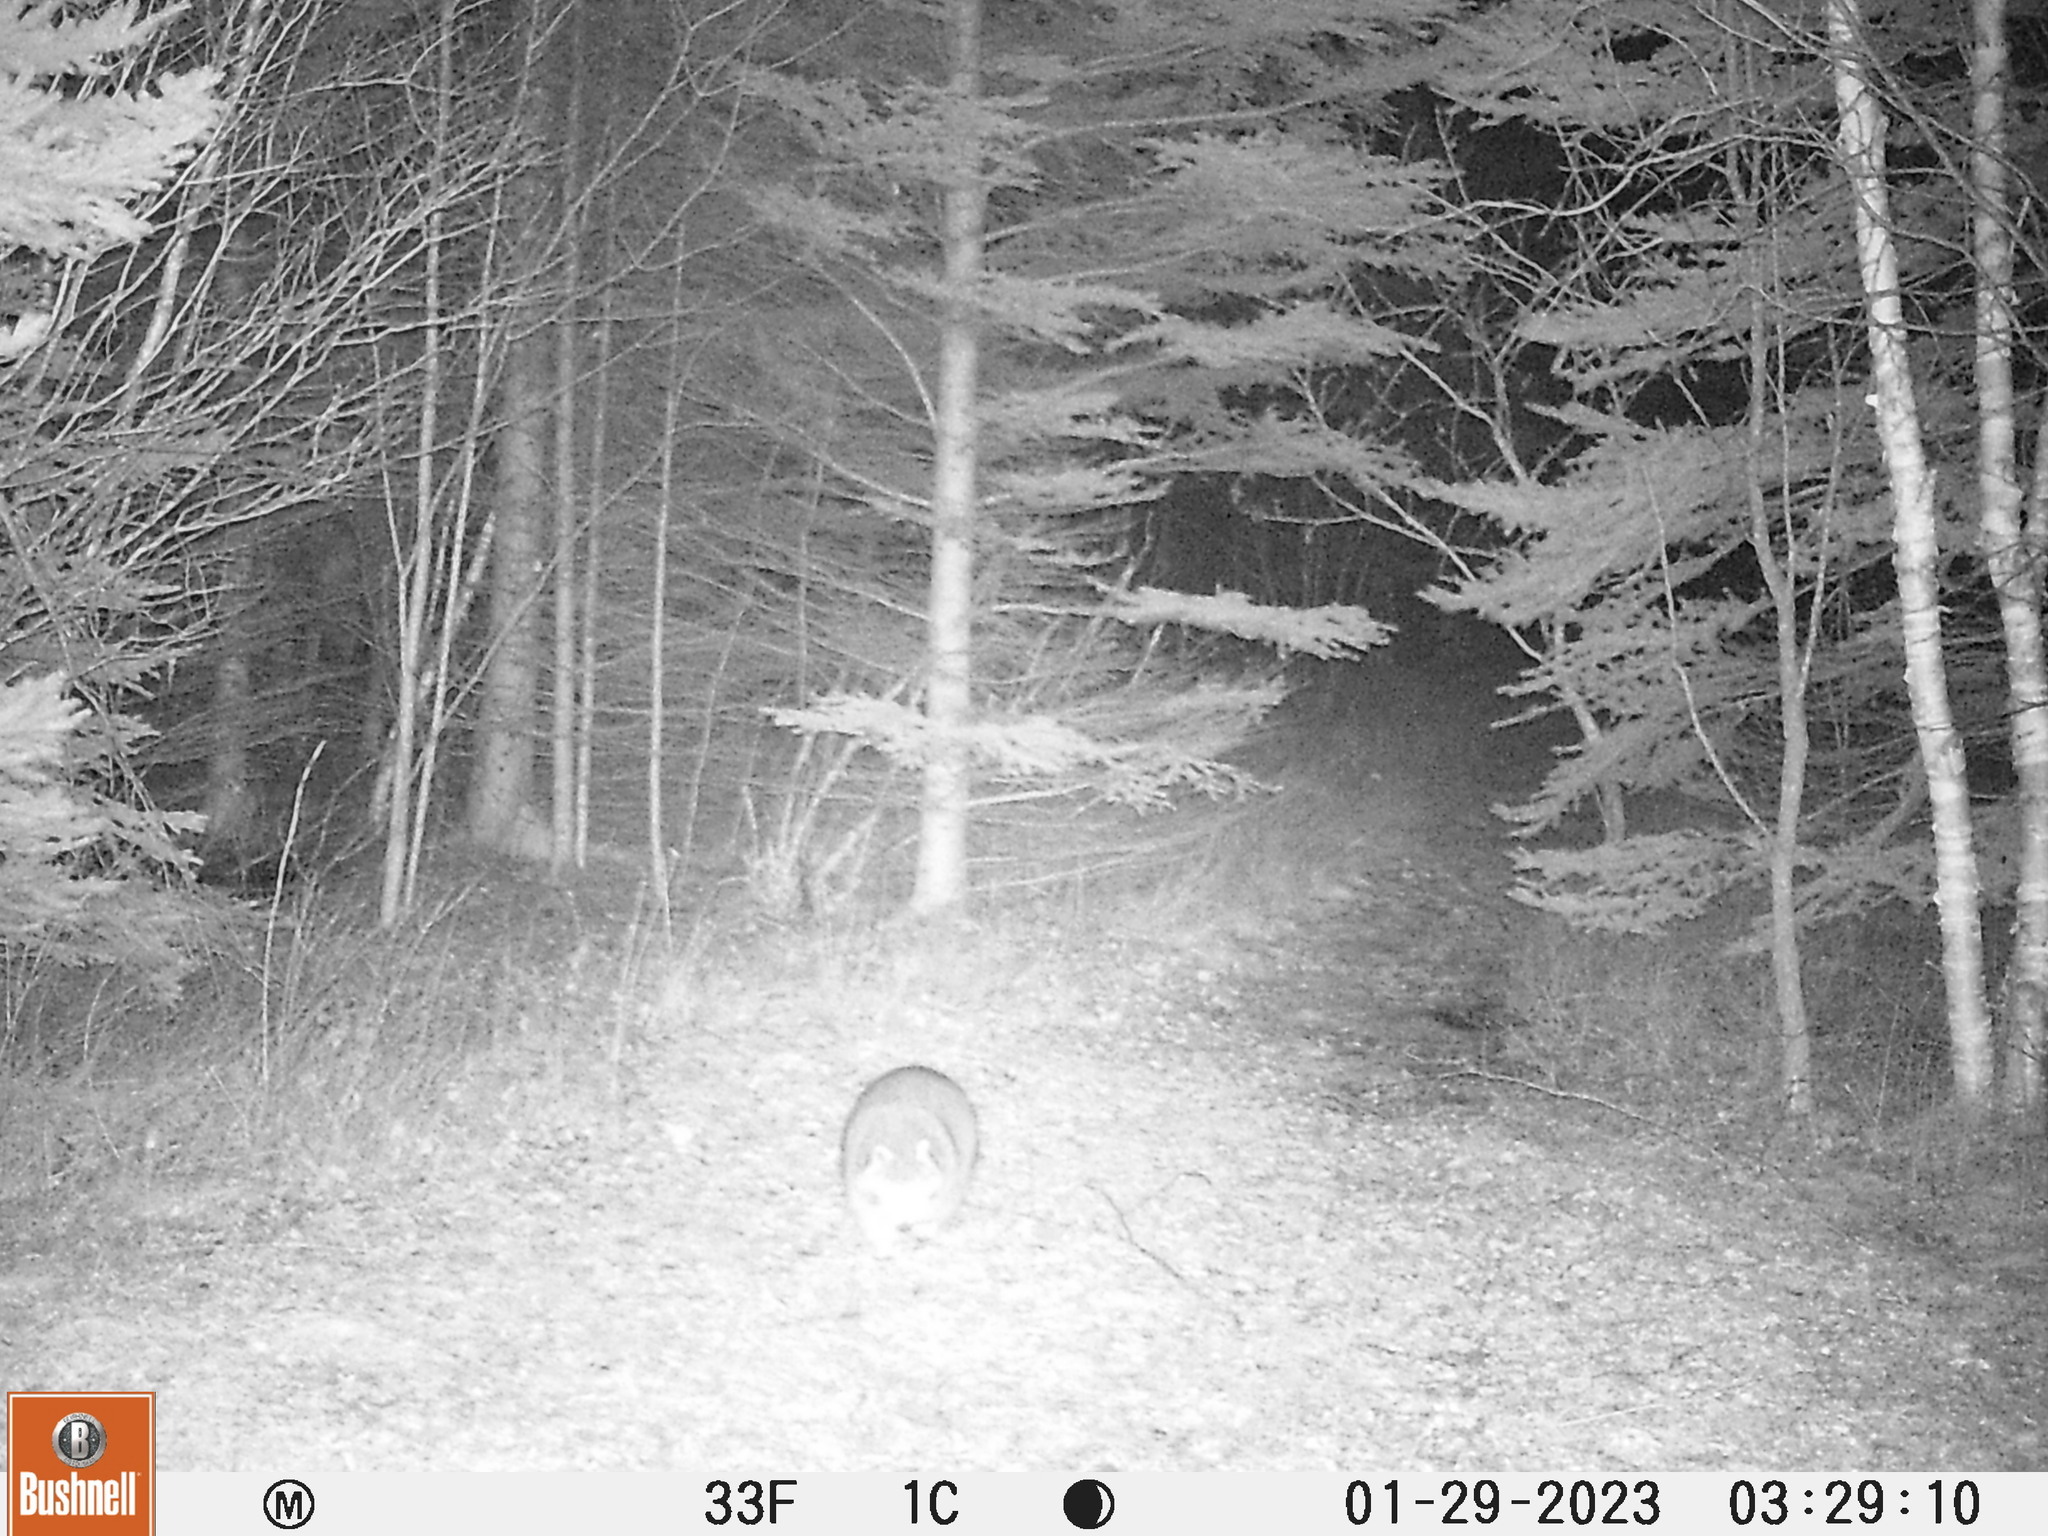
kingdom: Animalia
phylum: Chordata
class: Mammalia
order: Carnivora
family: Procyonidae
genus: Procyon
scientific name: Procyon lotor
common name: Raccoon
